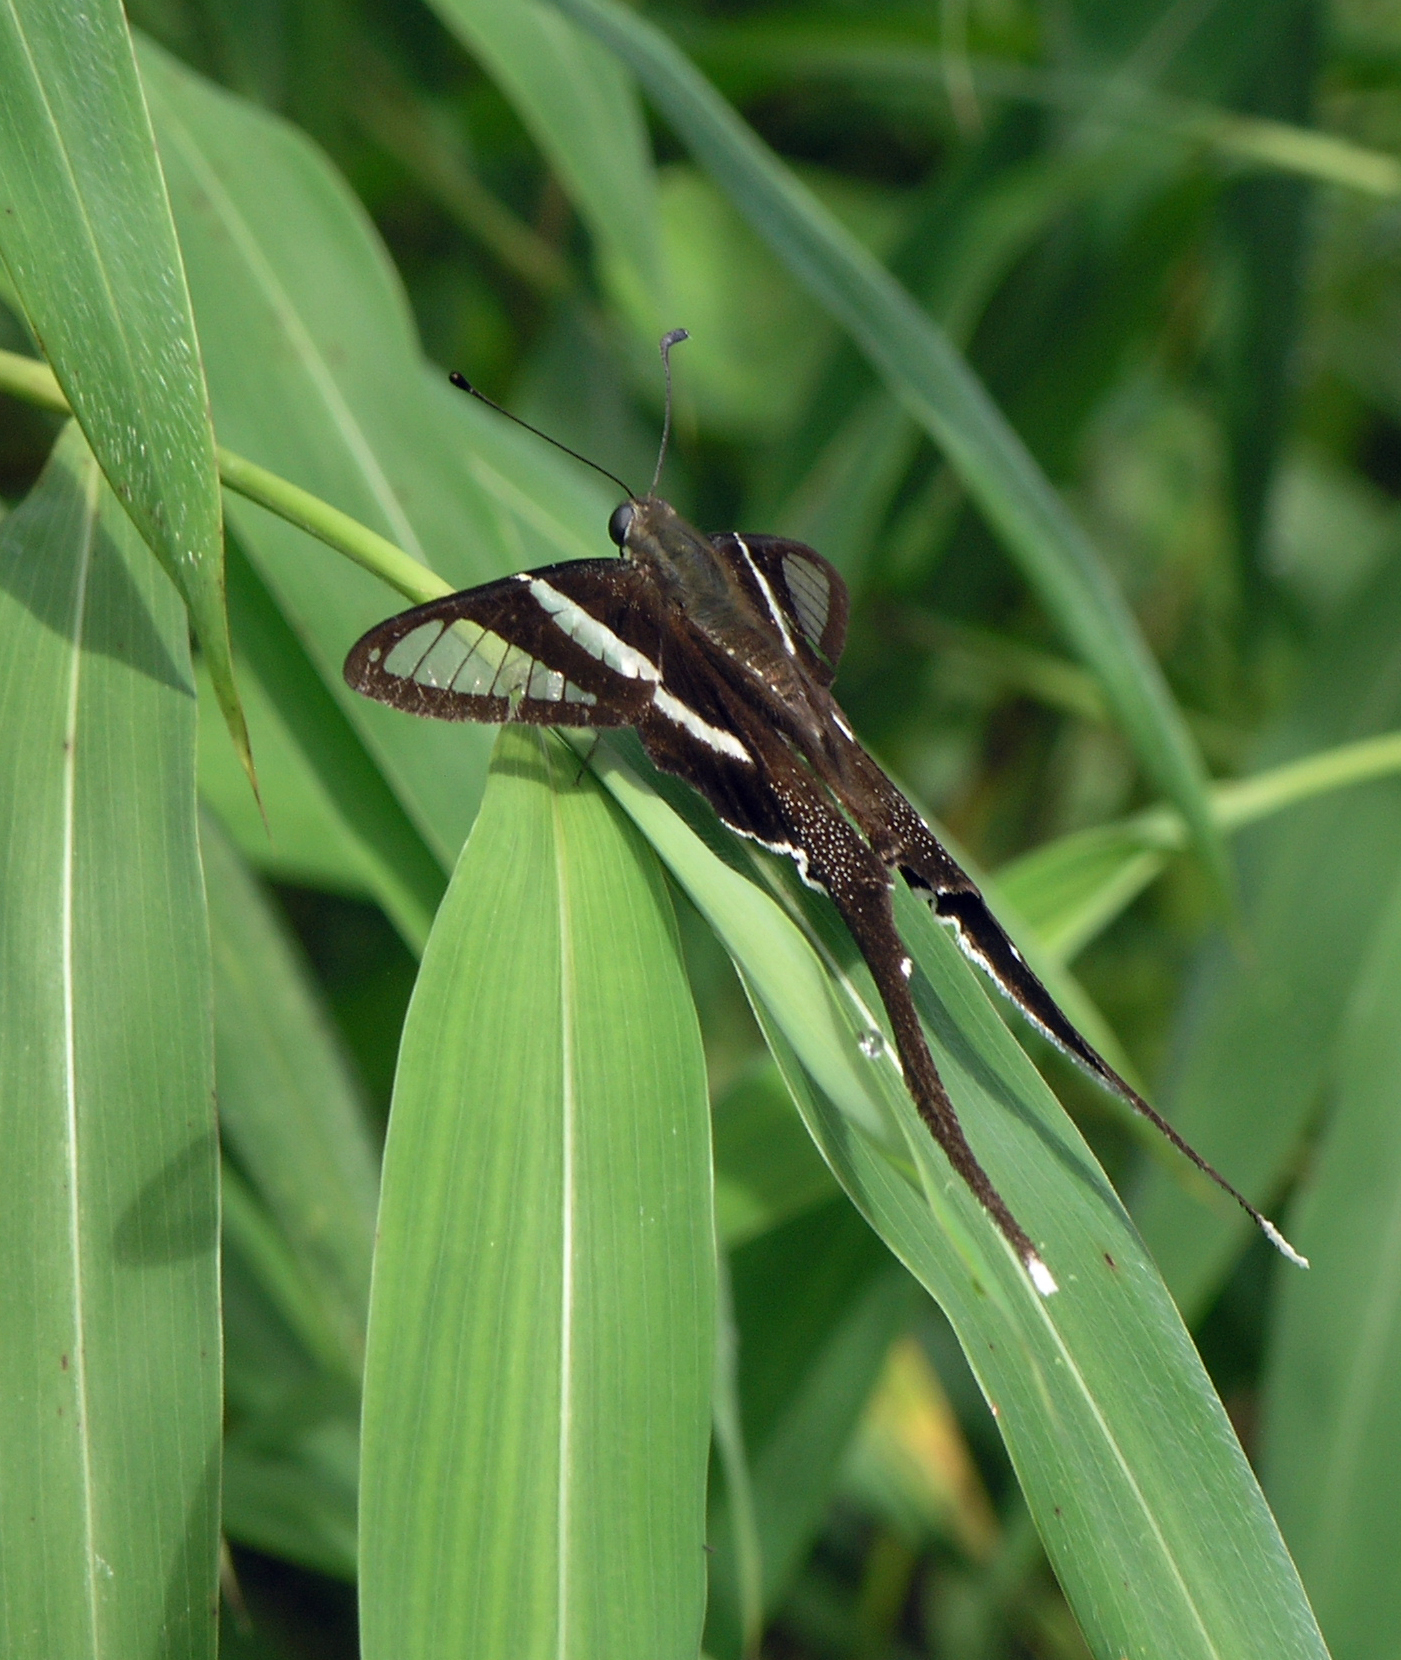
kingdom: Animalia
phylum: Arthropoda
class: Insecta
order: Lepidoptera
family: Papilionidae
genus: Lamproptera
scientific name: Lamproptera curius
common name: White dragontail
